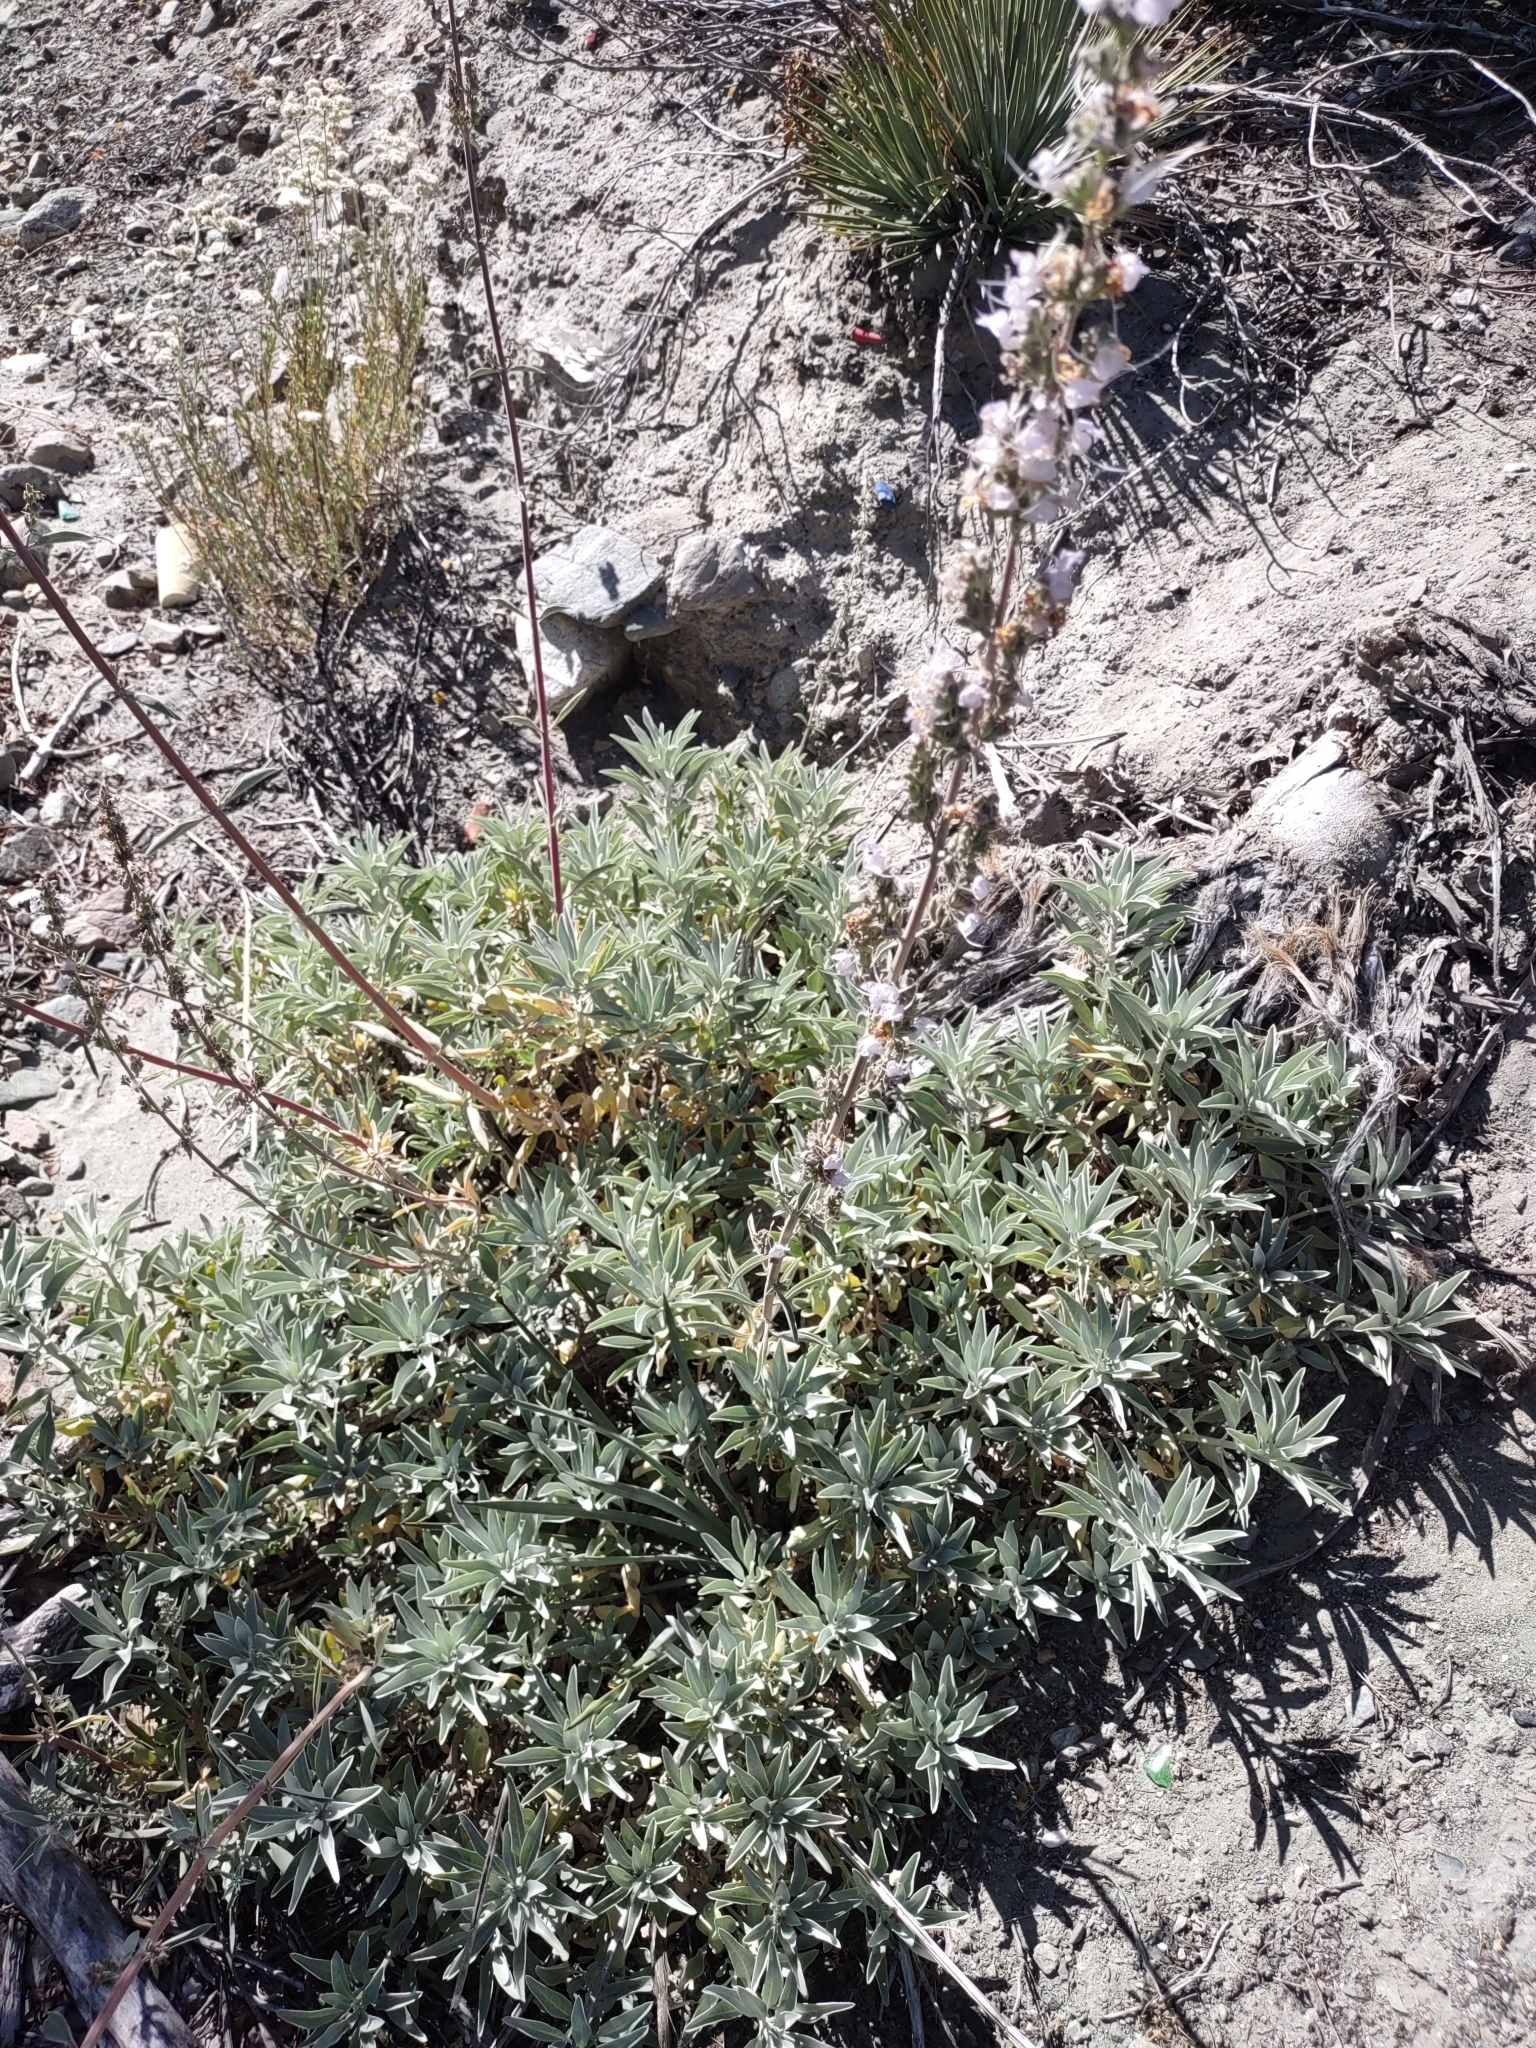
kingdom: Plantae
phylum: Tracheophyta
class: Magnoliopsida
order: Lamiales
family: Lamiaceae
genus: Salvia
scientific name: Salvia apiana
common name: White sage
